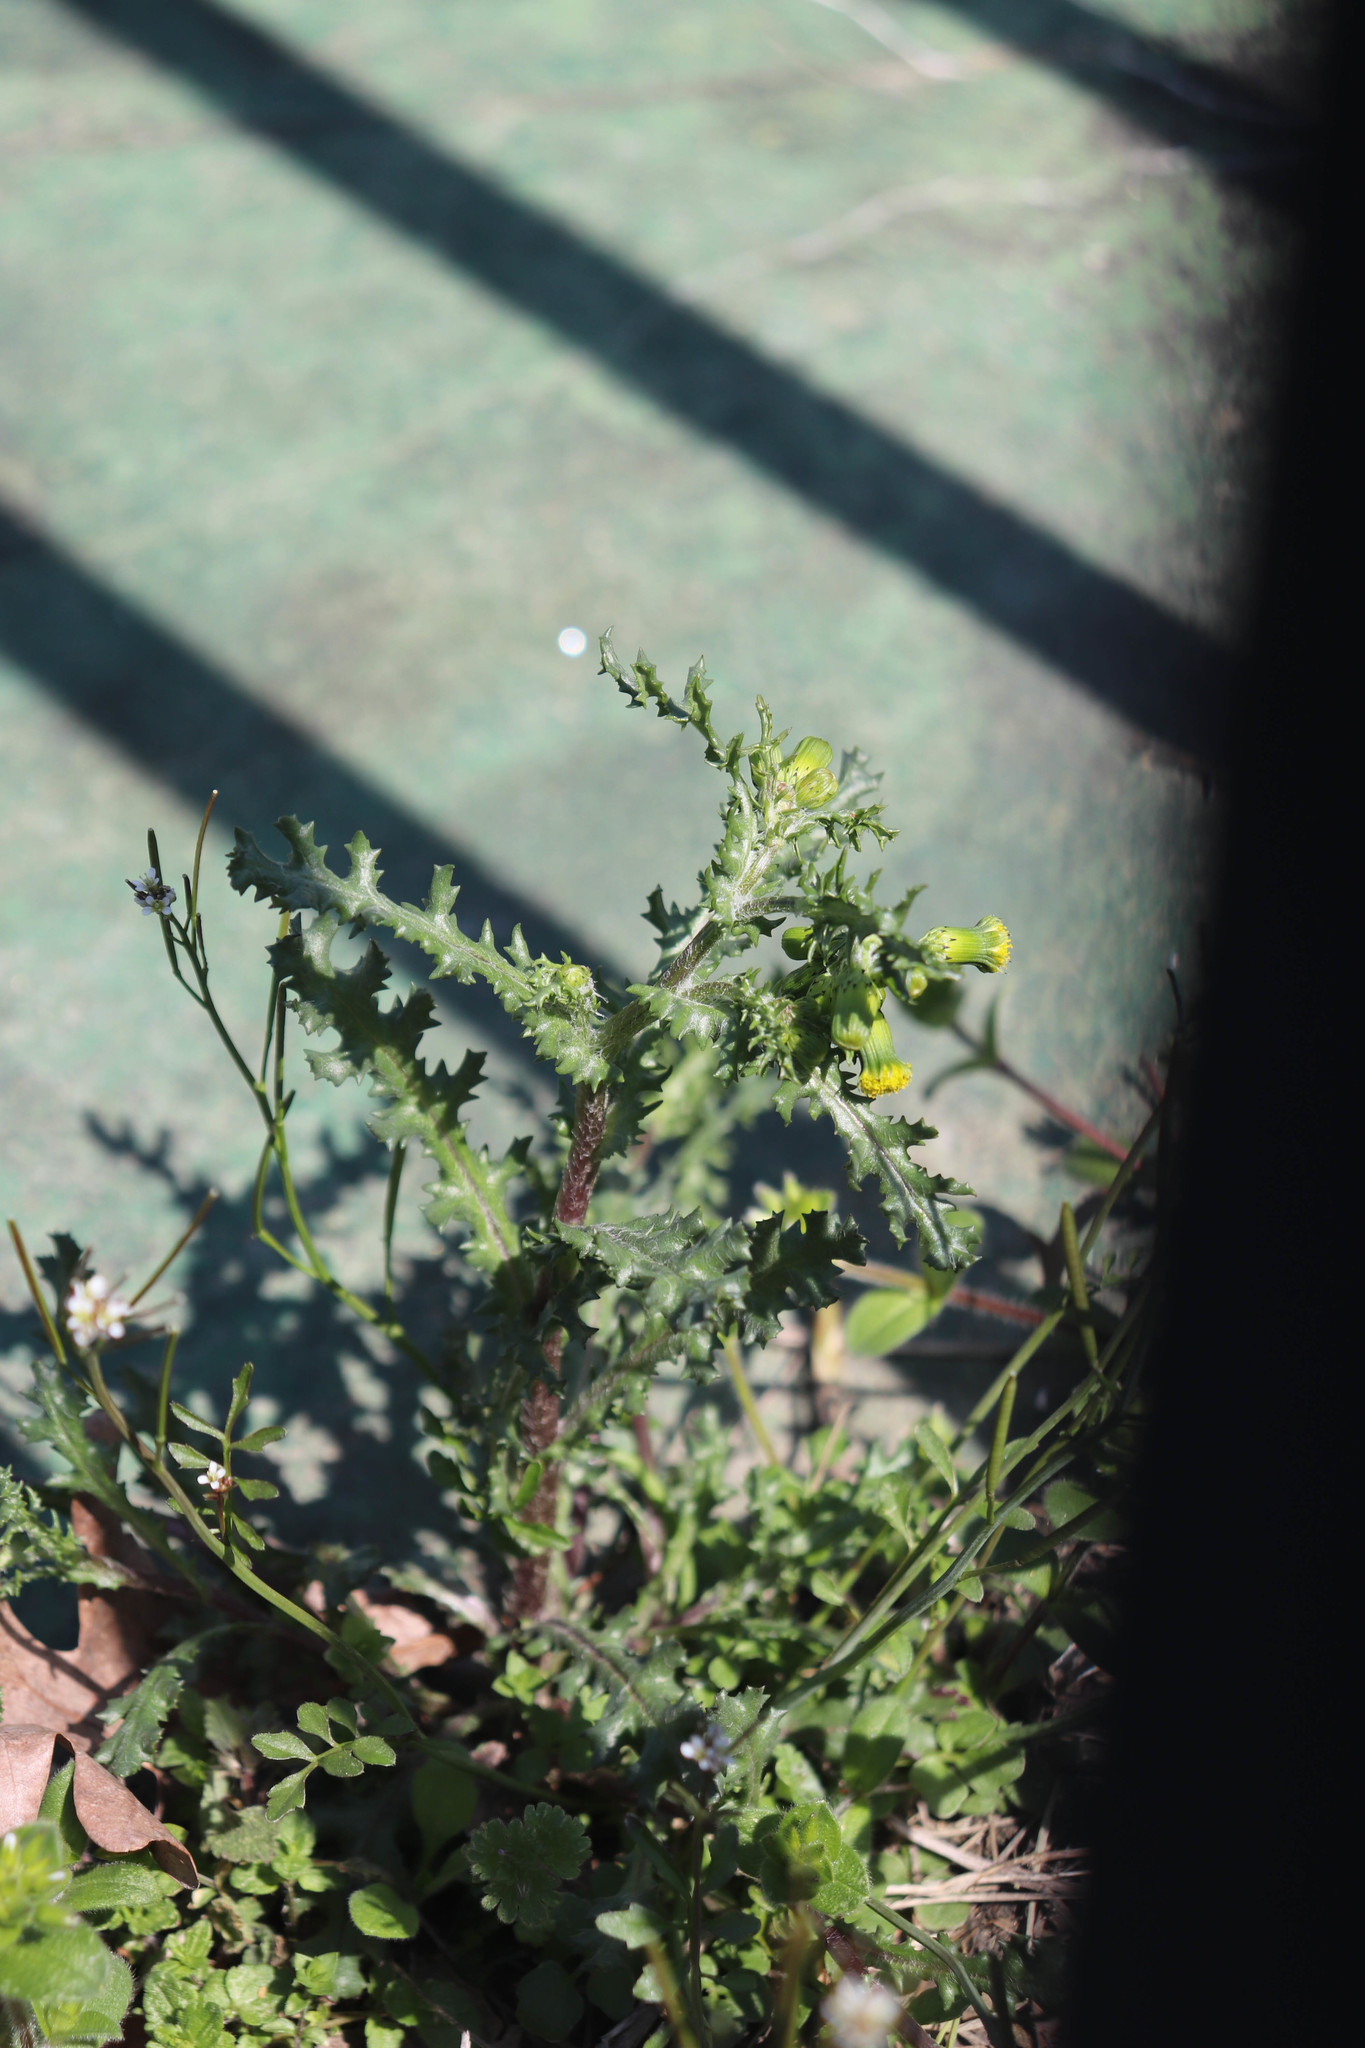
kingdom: Plantae
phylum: Tracheophyta
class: Magnoliopsida
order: Asterales
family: Asteraceae
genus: Senecio
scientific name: Senecio vulgaris
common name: Old-man-in-the-spring
